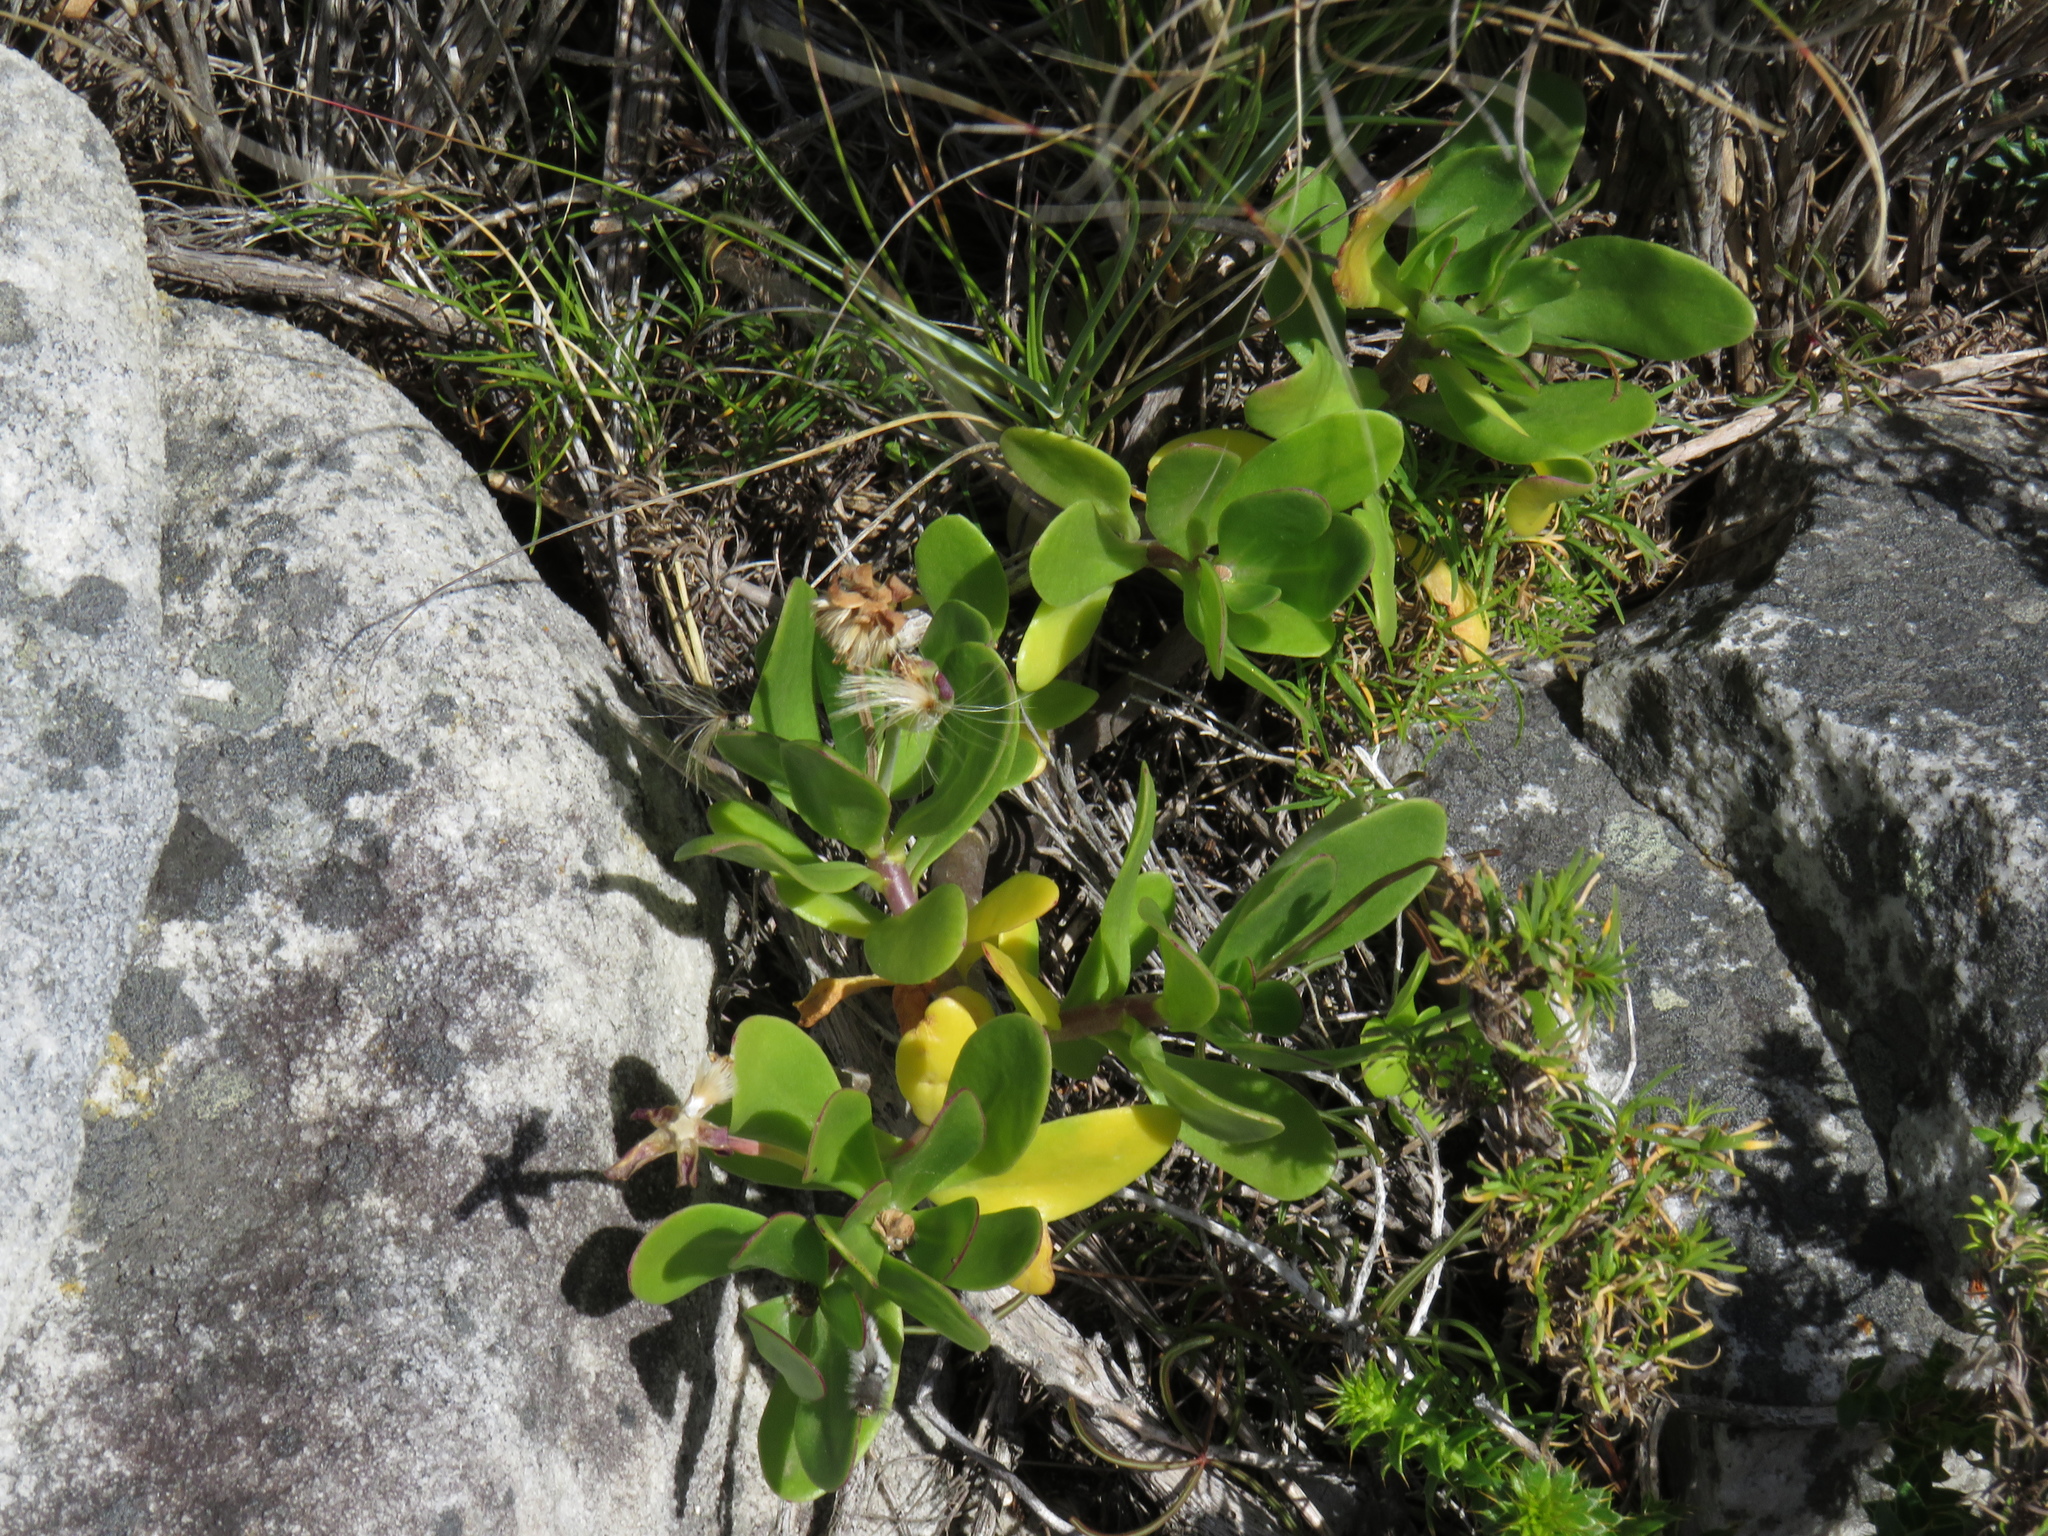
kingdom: Plantae
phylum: Tracheophyta
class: Magnoliopsida
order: Asterales
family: Asteraceae
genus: Othonna
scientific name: Othonna arborescens
